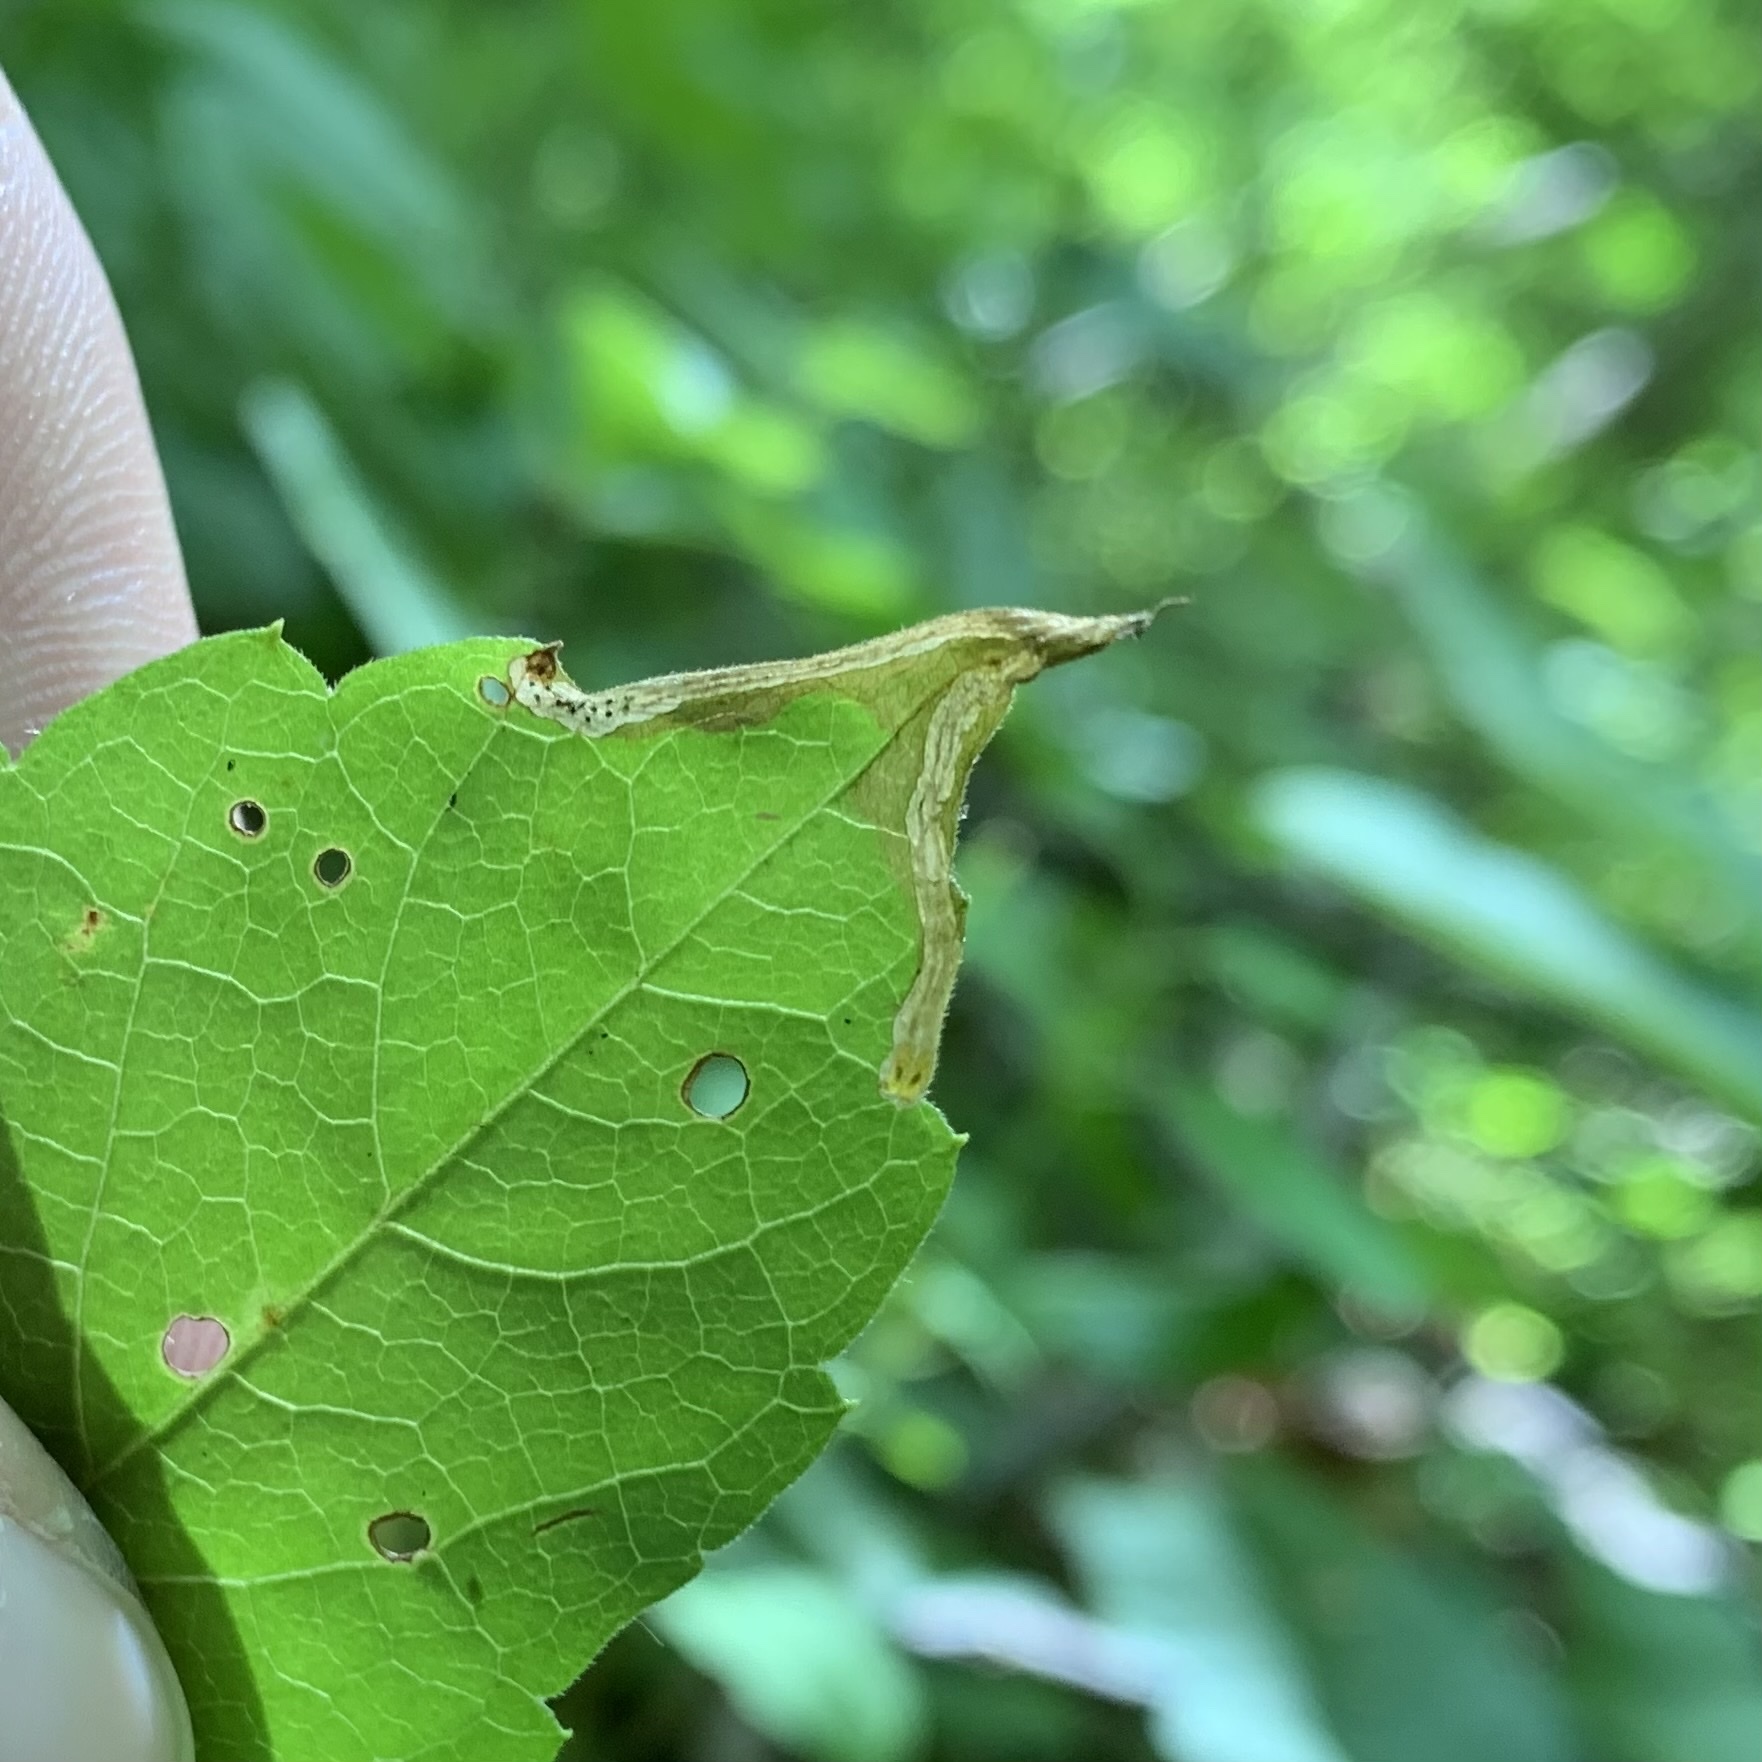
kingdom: Animalia
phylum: Arthropoda
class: Insecta
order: Coleoptera
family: Curculionidae
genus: Orchestomerus
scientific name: Orchestomerus eisemani
